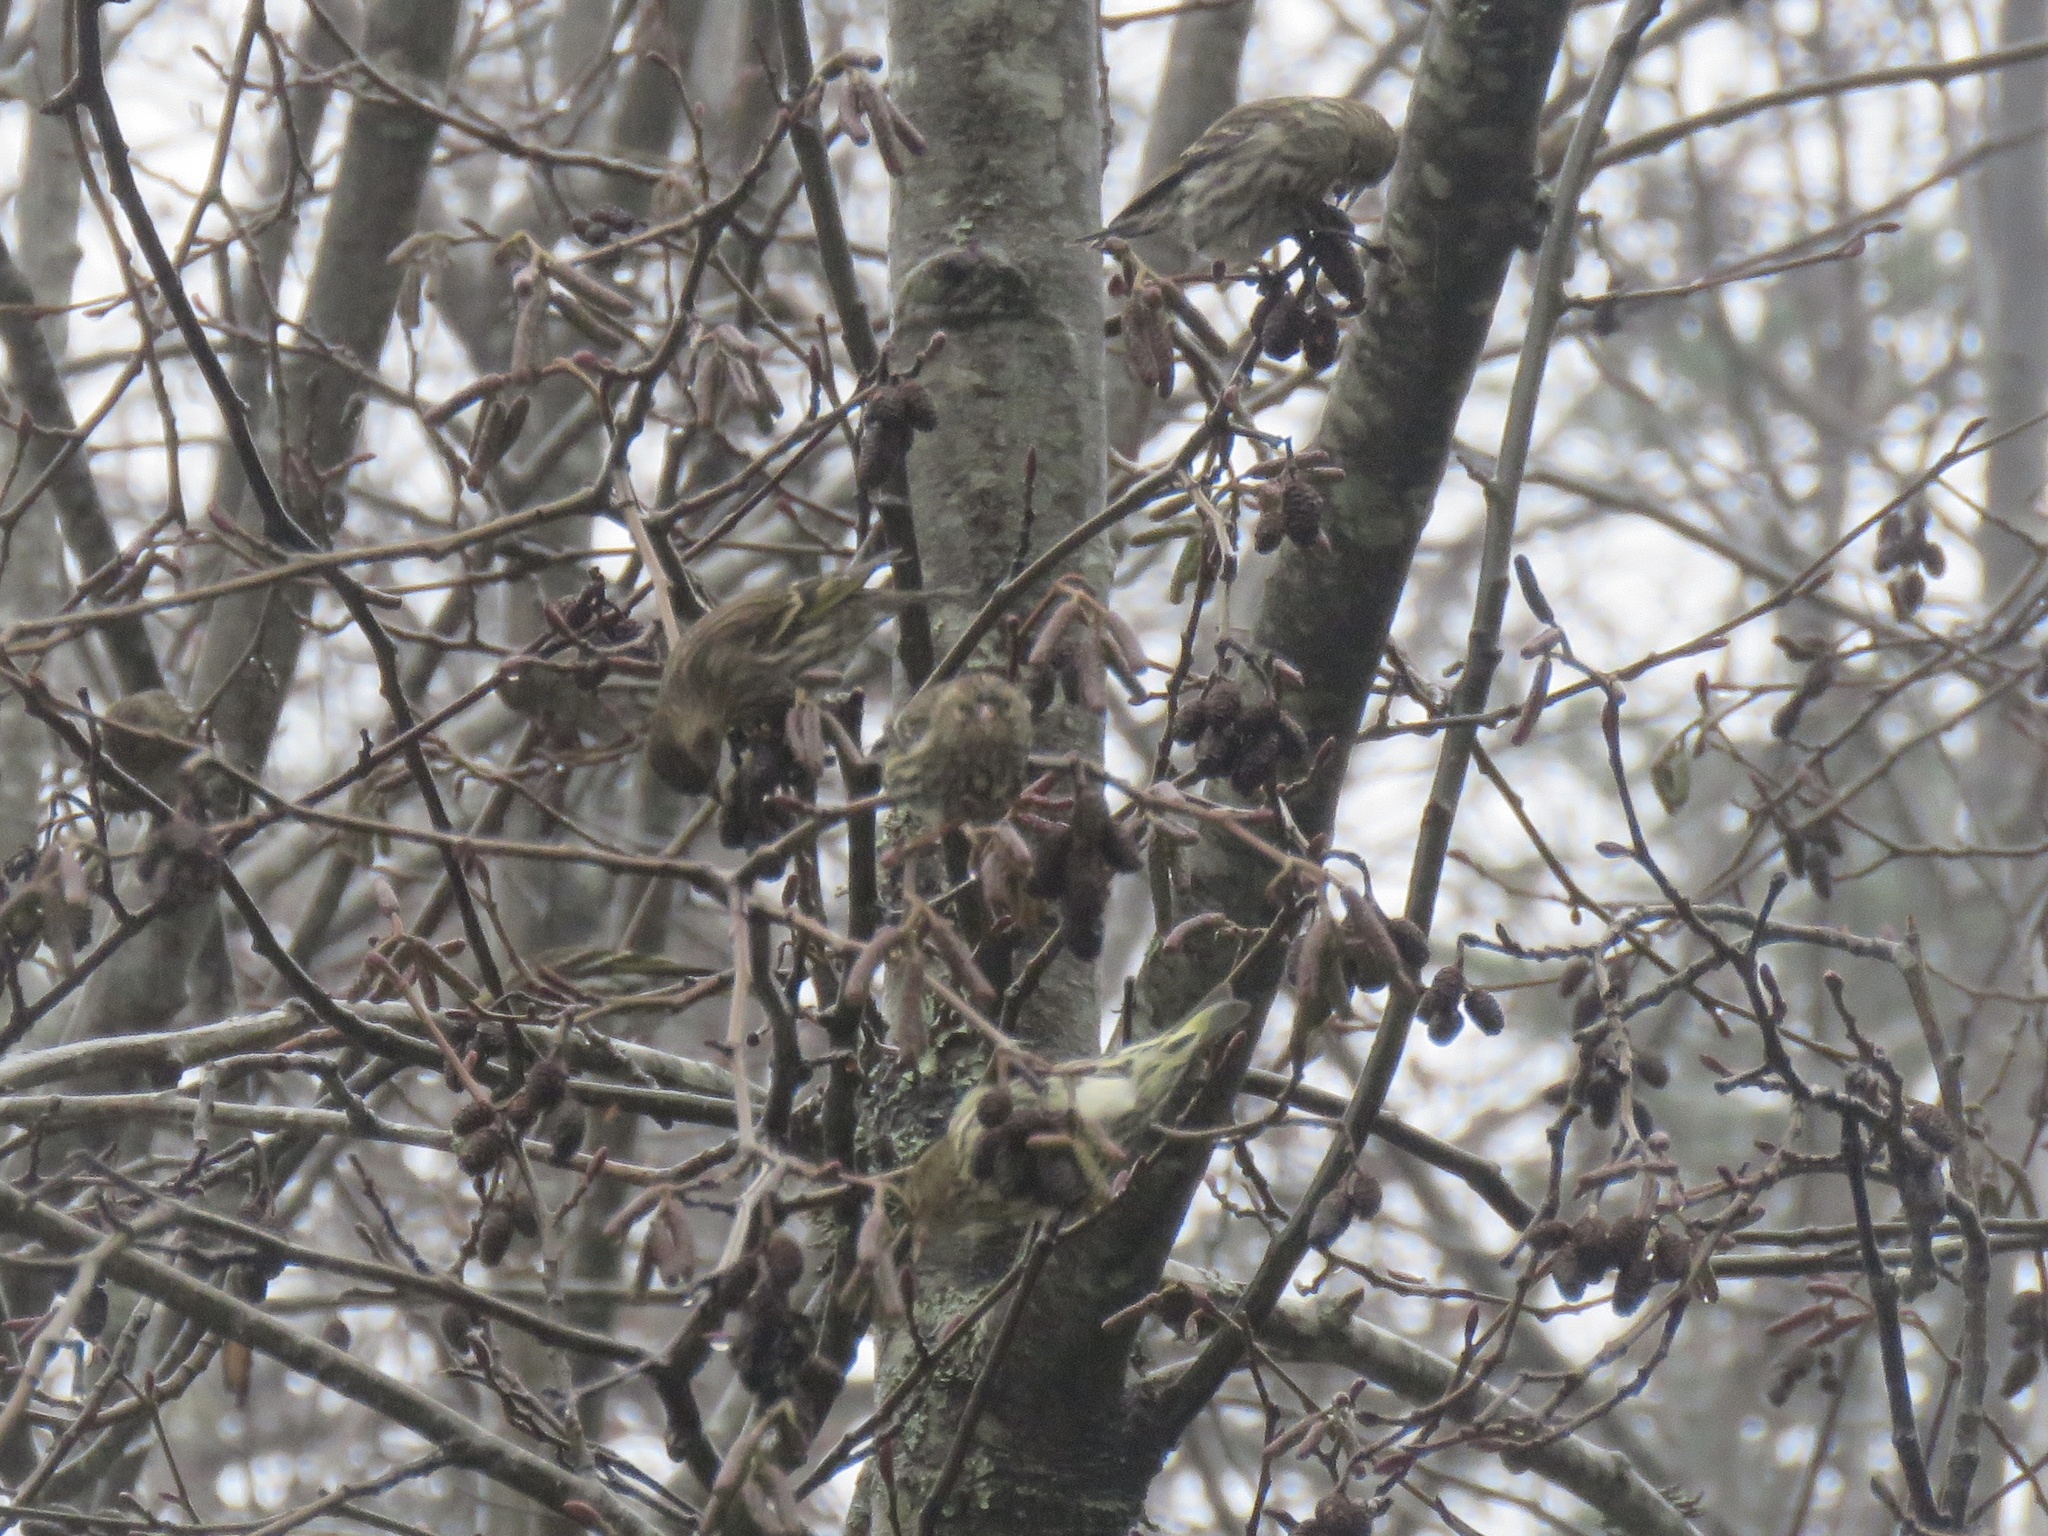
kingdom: Animalia
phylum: Chordata
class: Aves
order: Passeriformes
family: Fringillidae
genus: Spinus
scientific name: Spinus pinus
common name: Pine siskin
